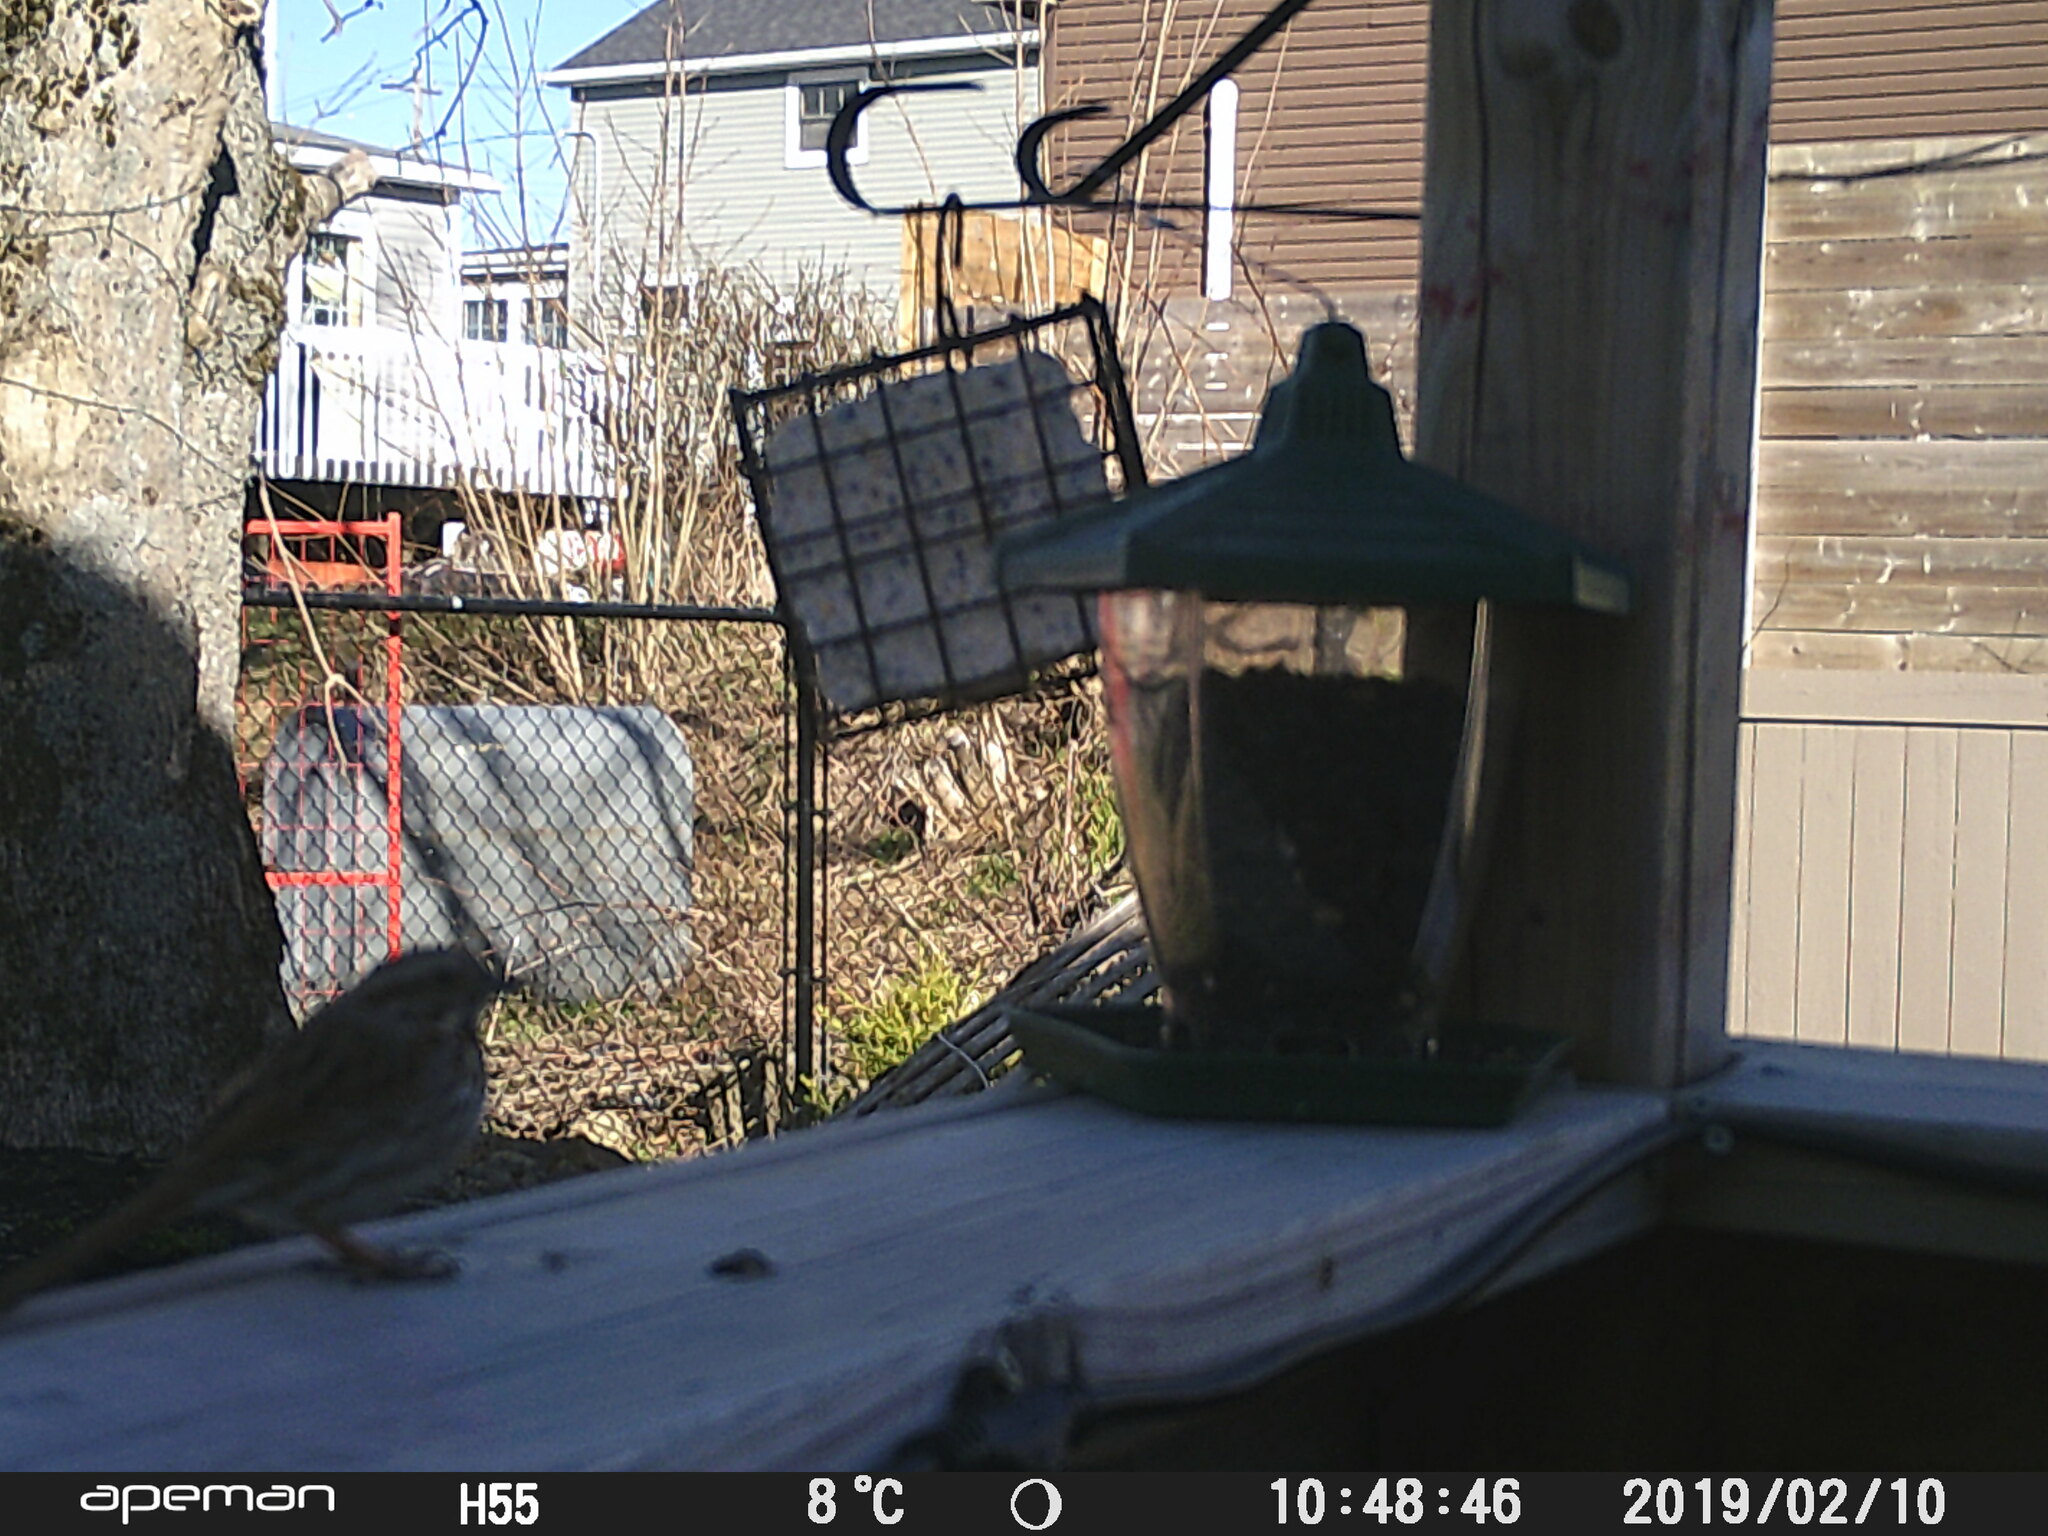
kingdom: Animalia
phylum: Chordata
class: Aves
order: Passeriformes
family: Passerellidae
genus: Melospiza
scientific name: Melospiza melodia
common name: Song sparrow
